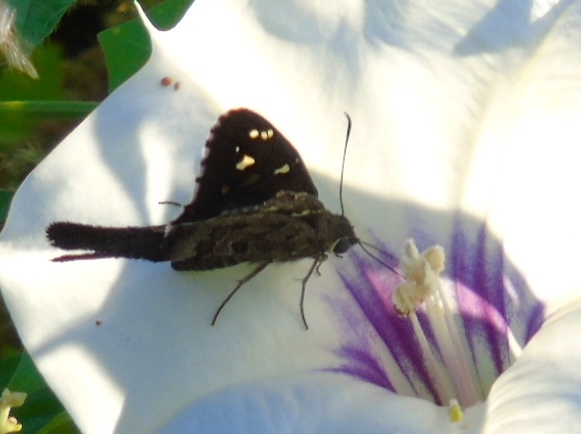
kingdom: Animalia
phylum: Arthropoda
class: Insecta
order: Lepidoptera
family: Hesperiidae
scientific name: Hesperiidae
